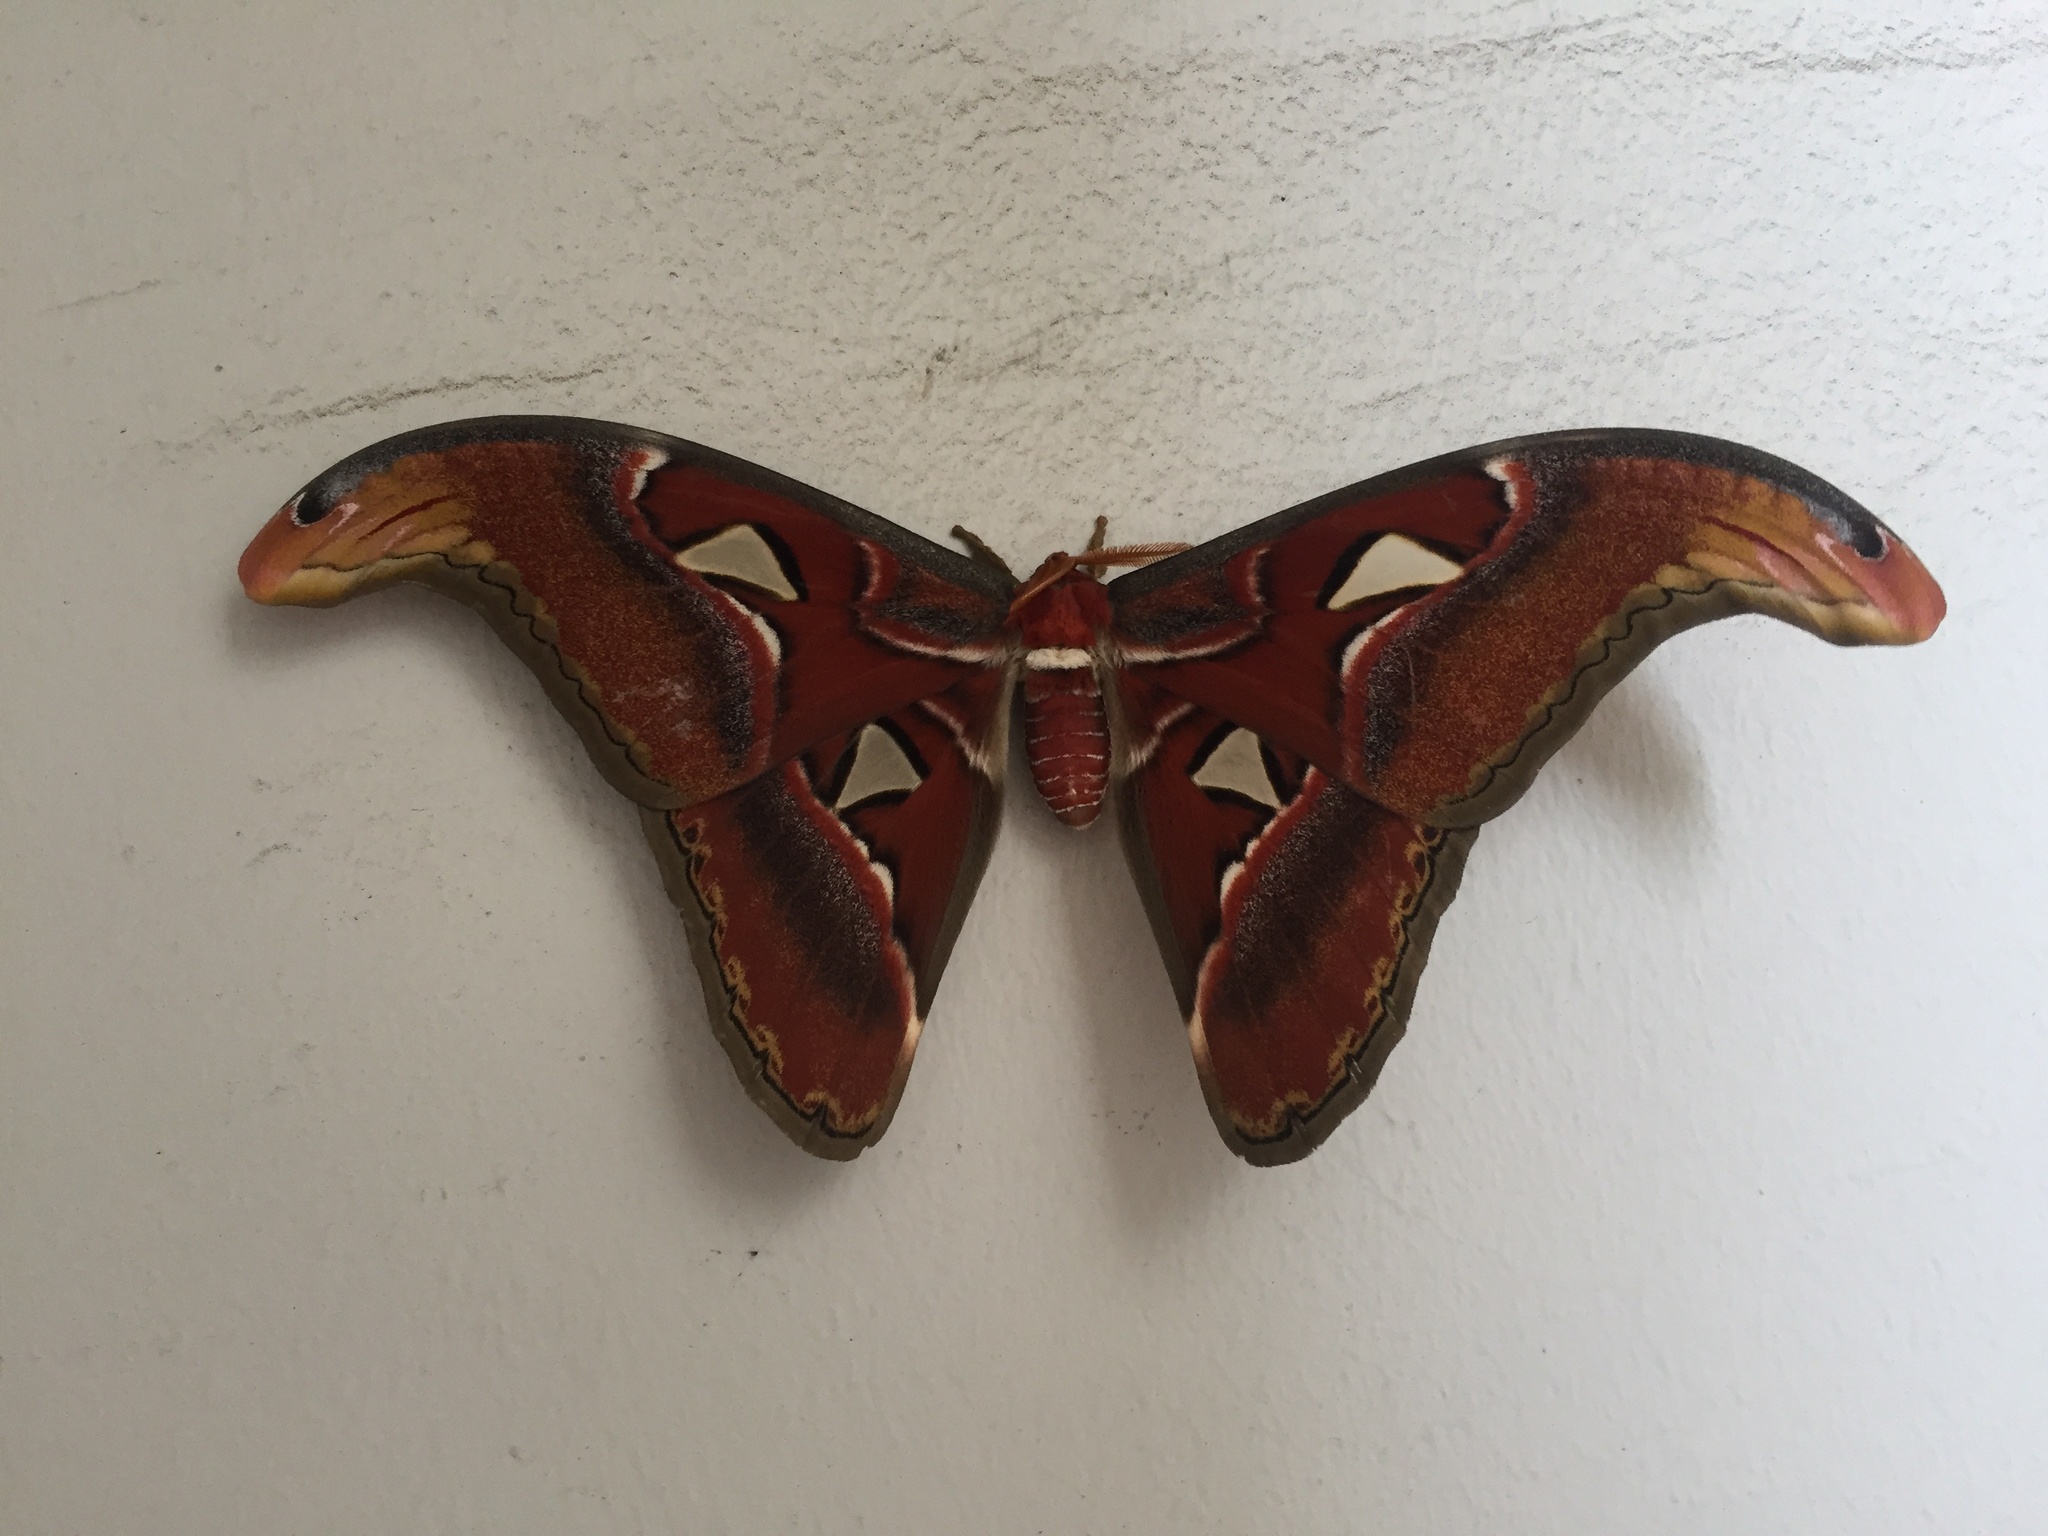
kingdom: Animalia
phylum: Arthropoda
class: Insecta
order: Lepidoptera
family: Saturniidae
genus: Attacus
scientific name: Attacus atlas
